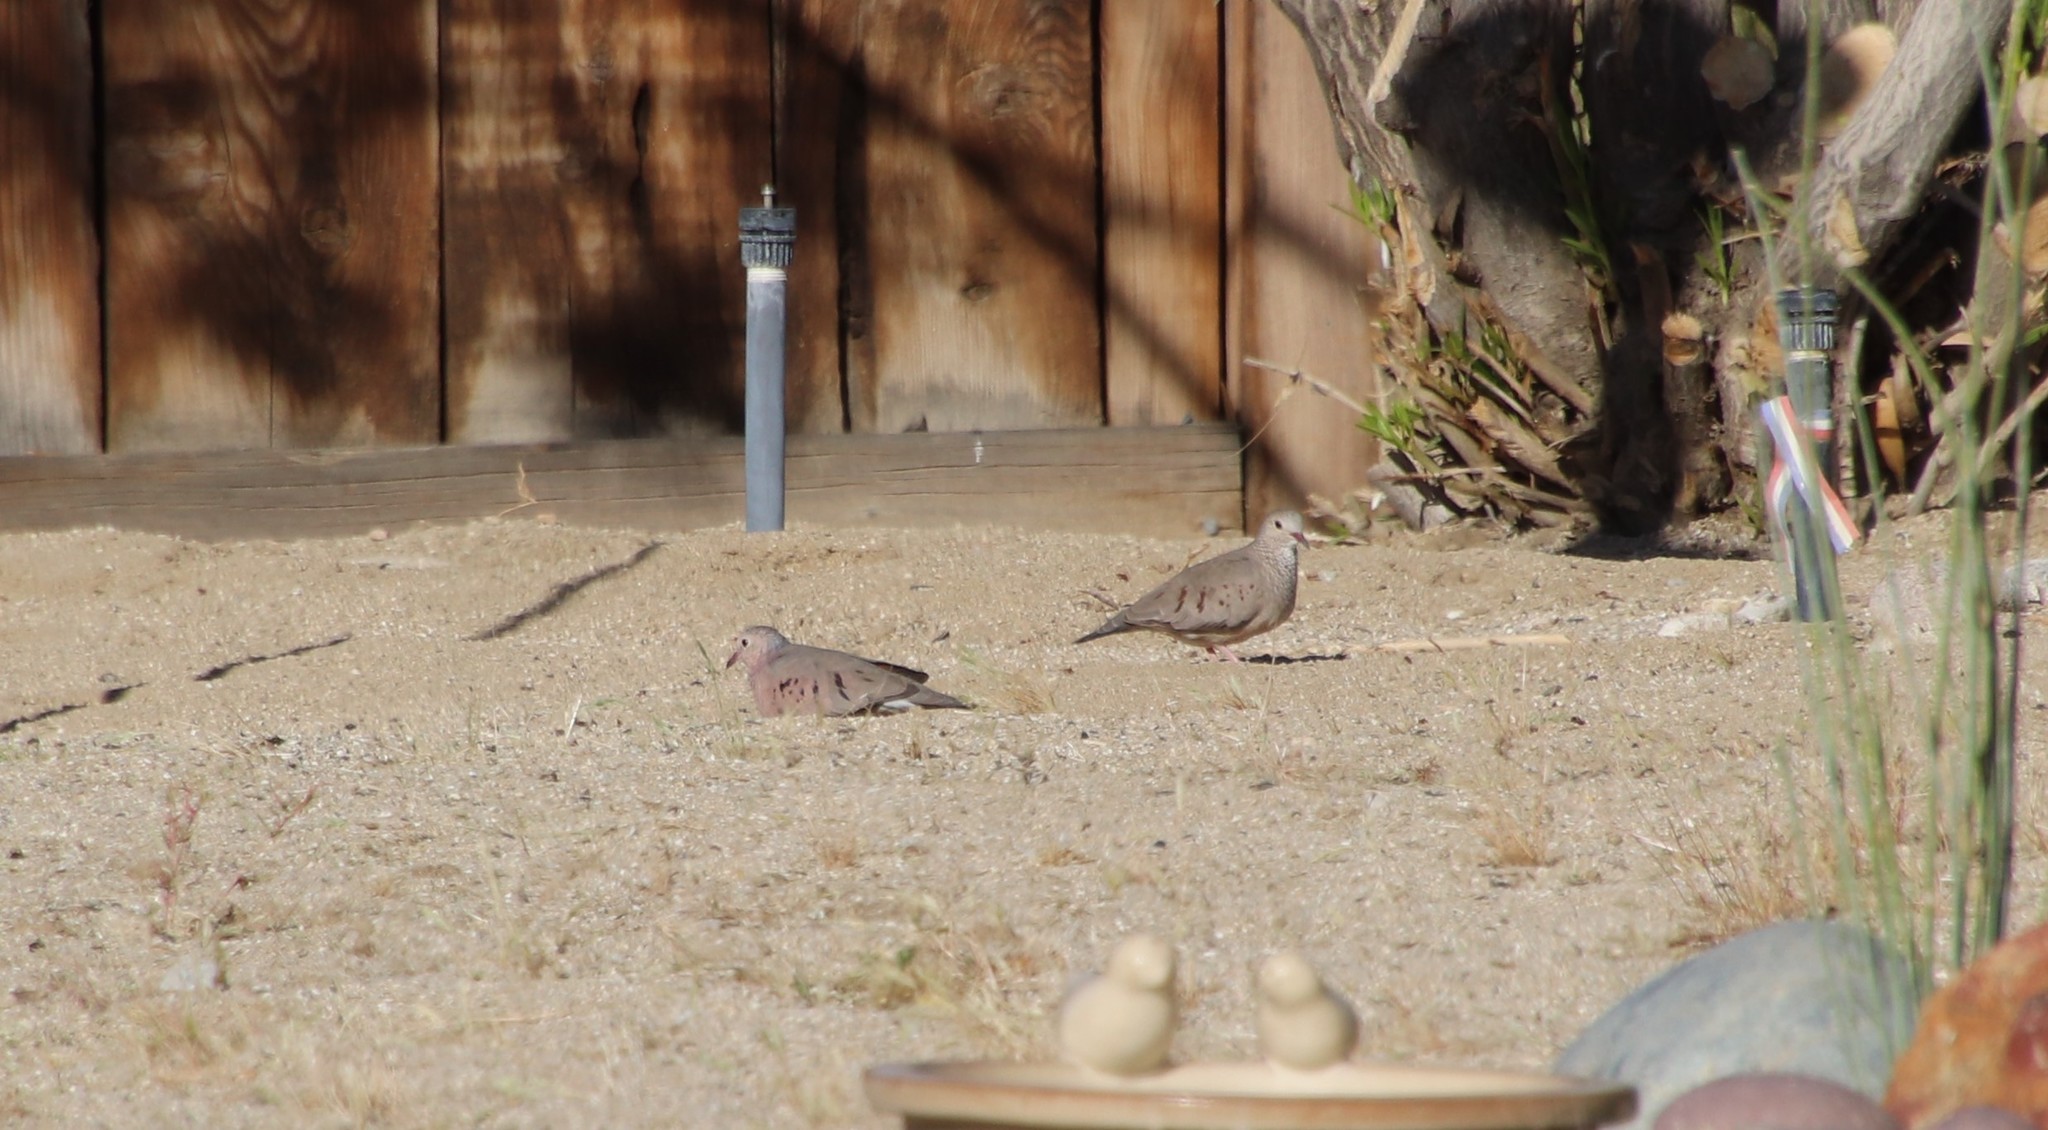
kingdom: Animalia
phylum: Chordata
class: Aves
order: Columbiformes
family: Columbidae
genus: Columbina
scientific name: Columbina passerina
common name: Common ground-dove
